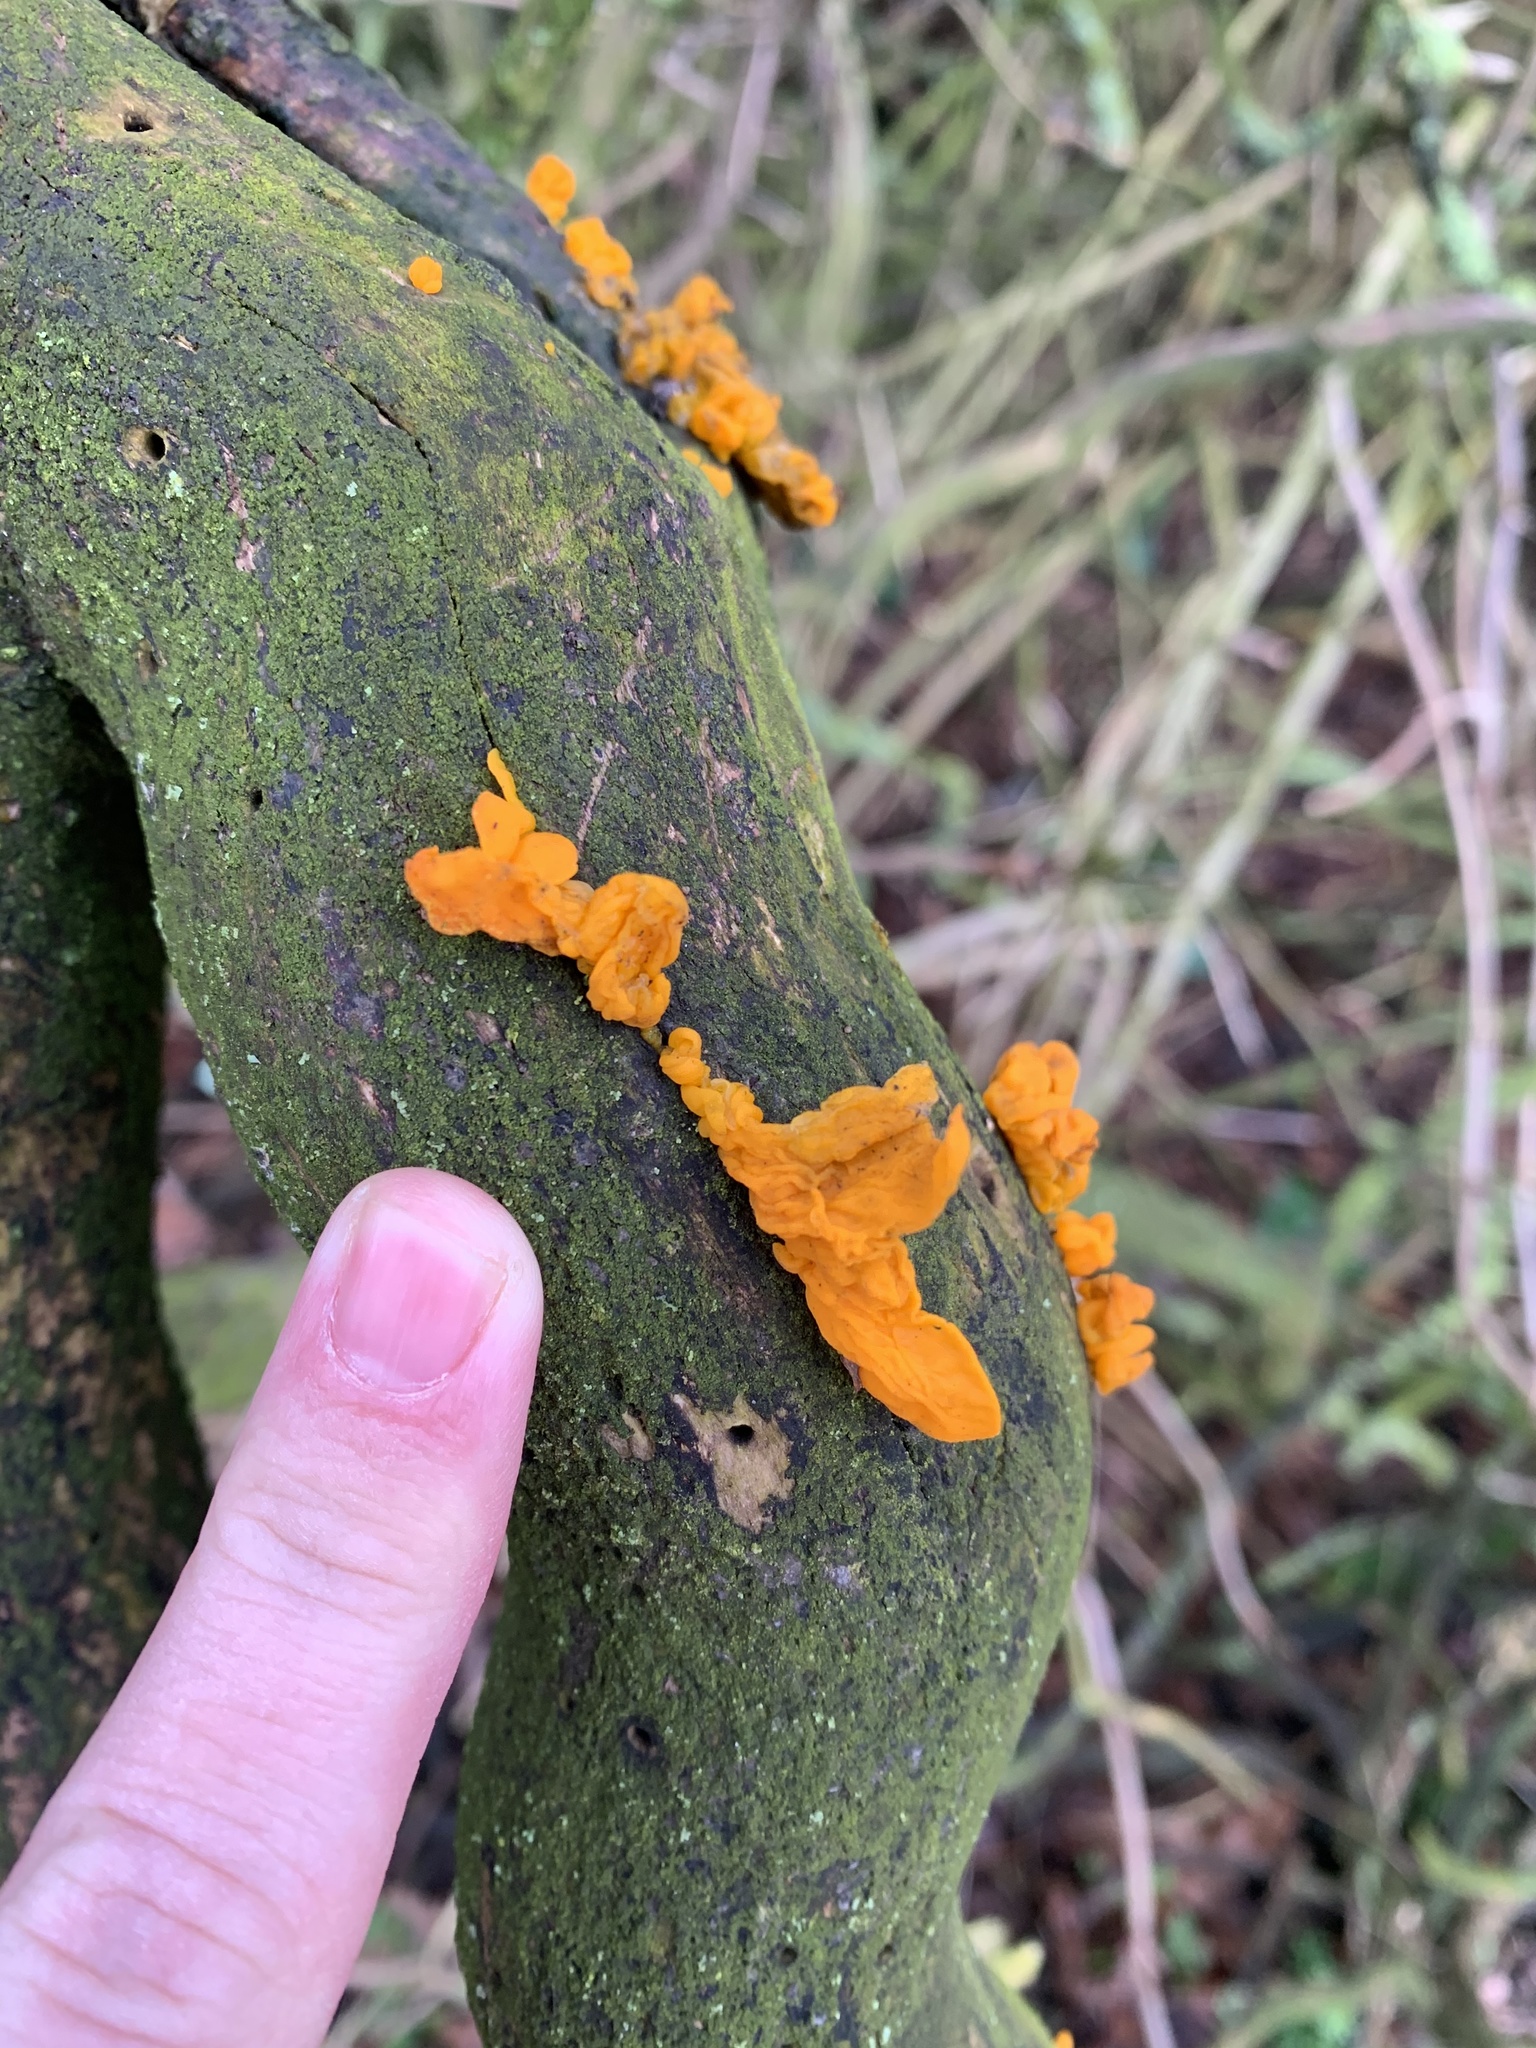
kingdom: Fungi
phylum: Basidiomycota
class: Tremellomycetes
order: Tremellales
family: Tremellaceae
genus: Tremella
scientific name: Tremella mesenterica
